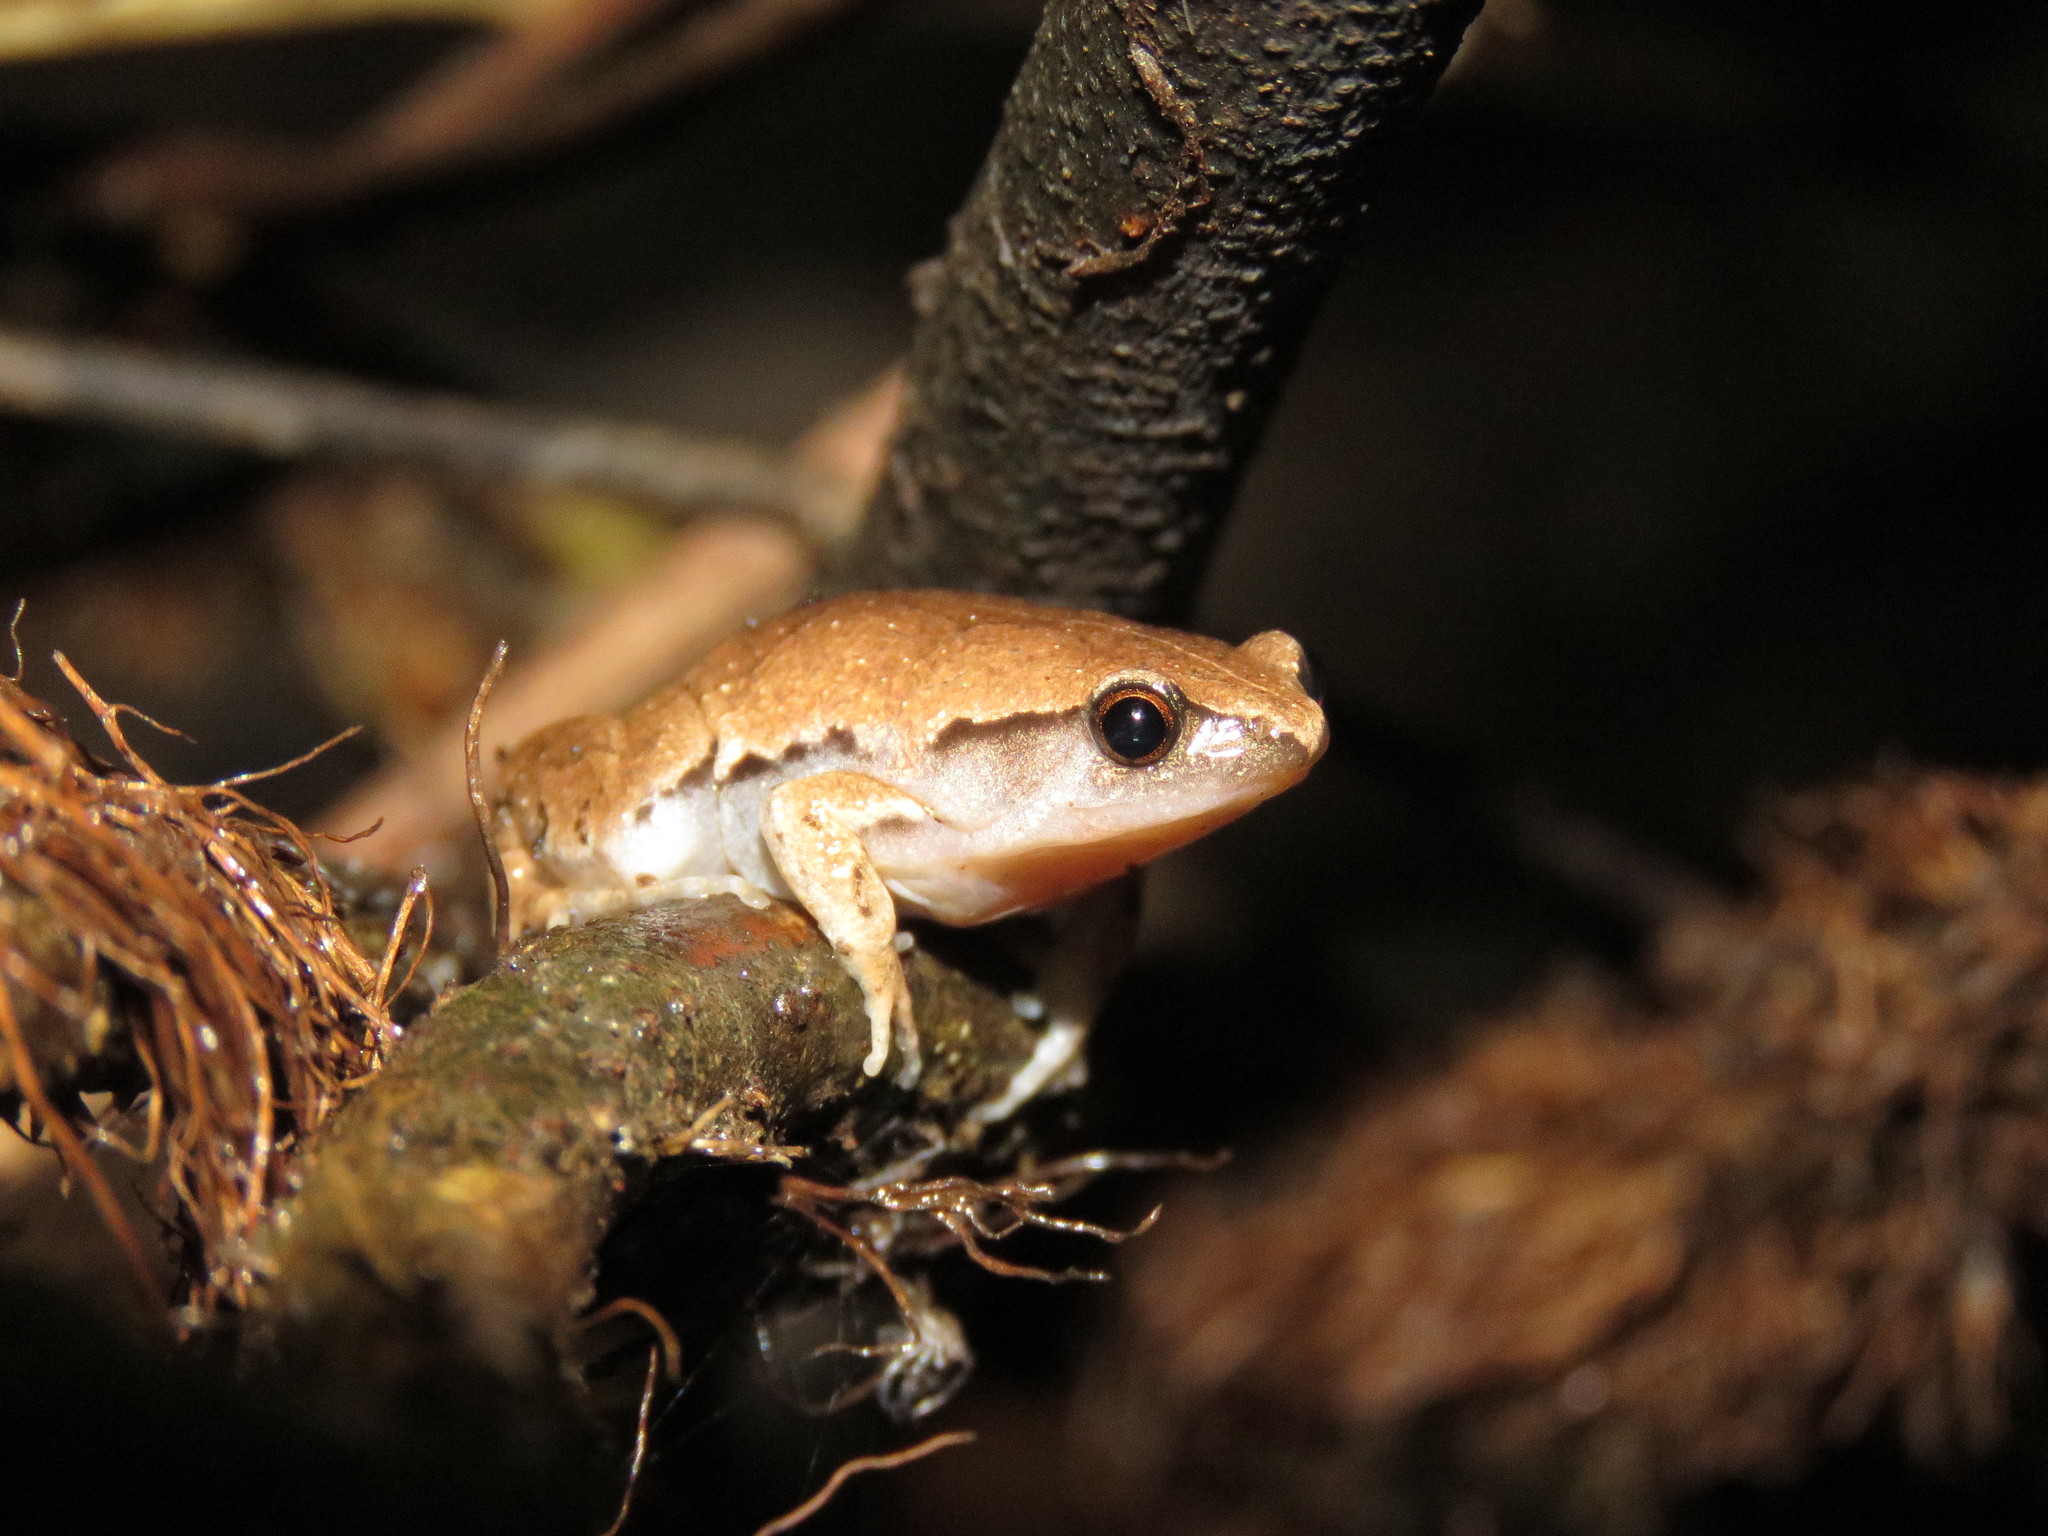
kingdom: Animalia
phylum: Chordata
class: Amphibia
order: Anura
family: Microhylidae
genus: Hamptophryne
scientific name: Hamptophryne boliviana
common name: Bolivian bleating frog
